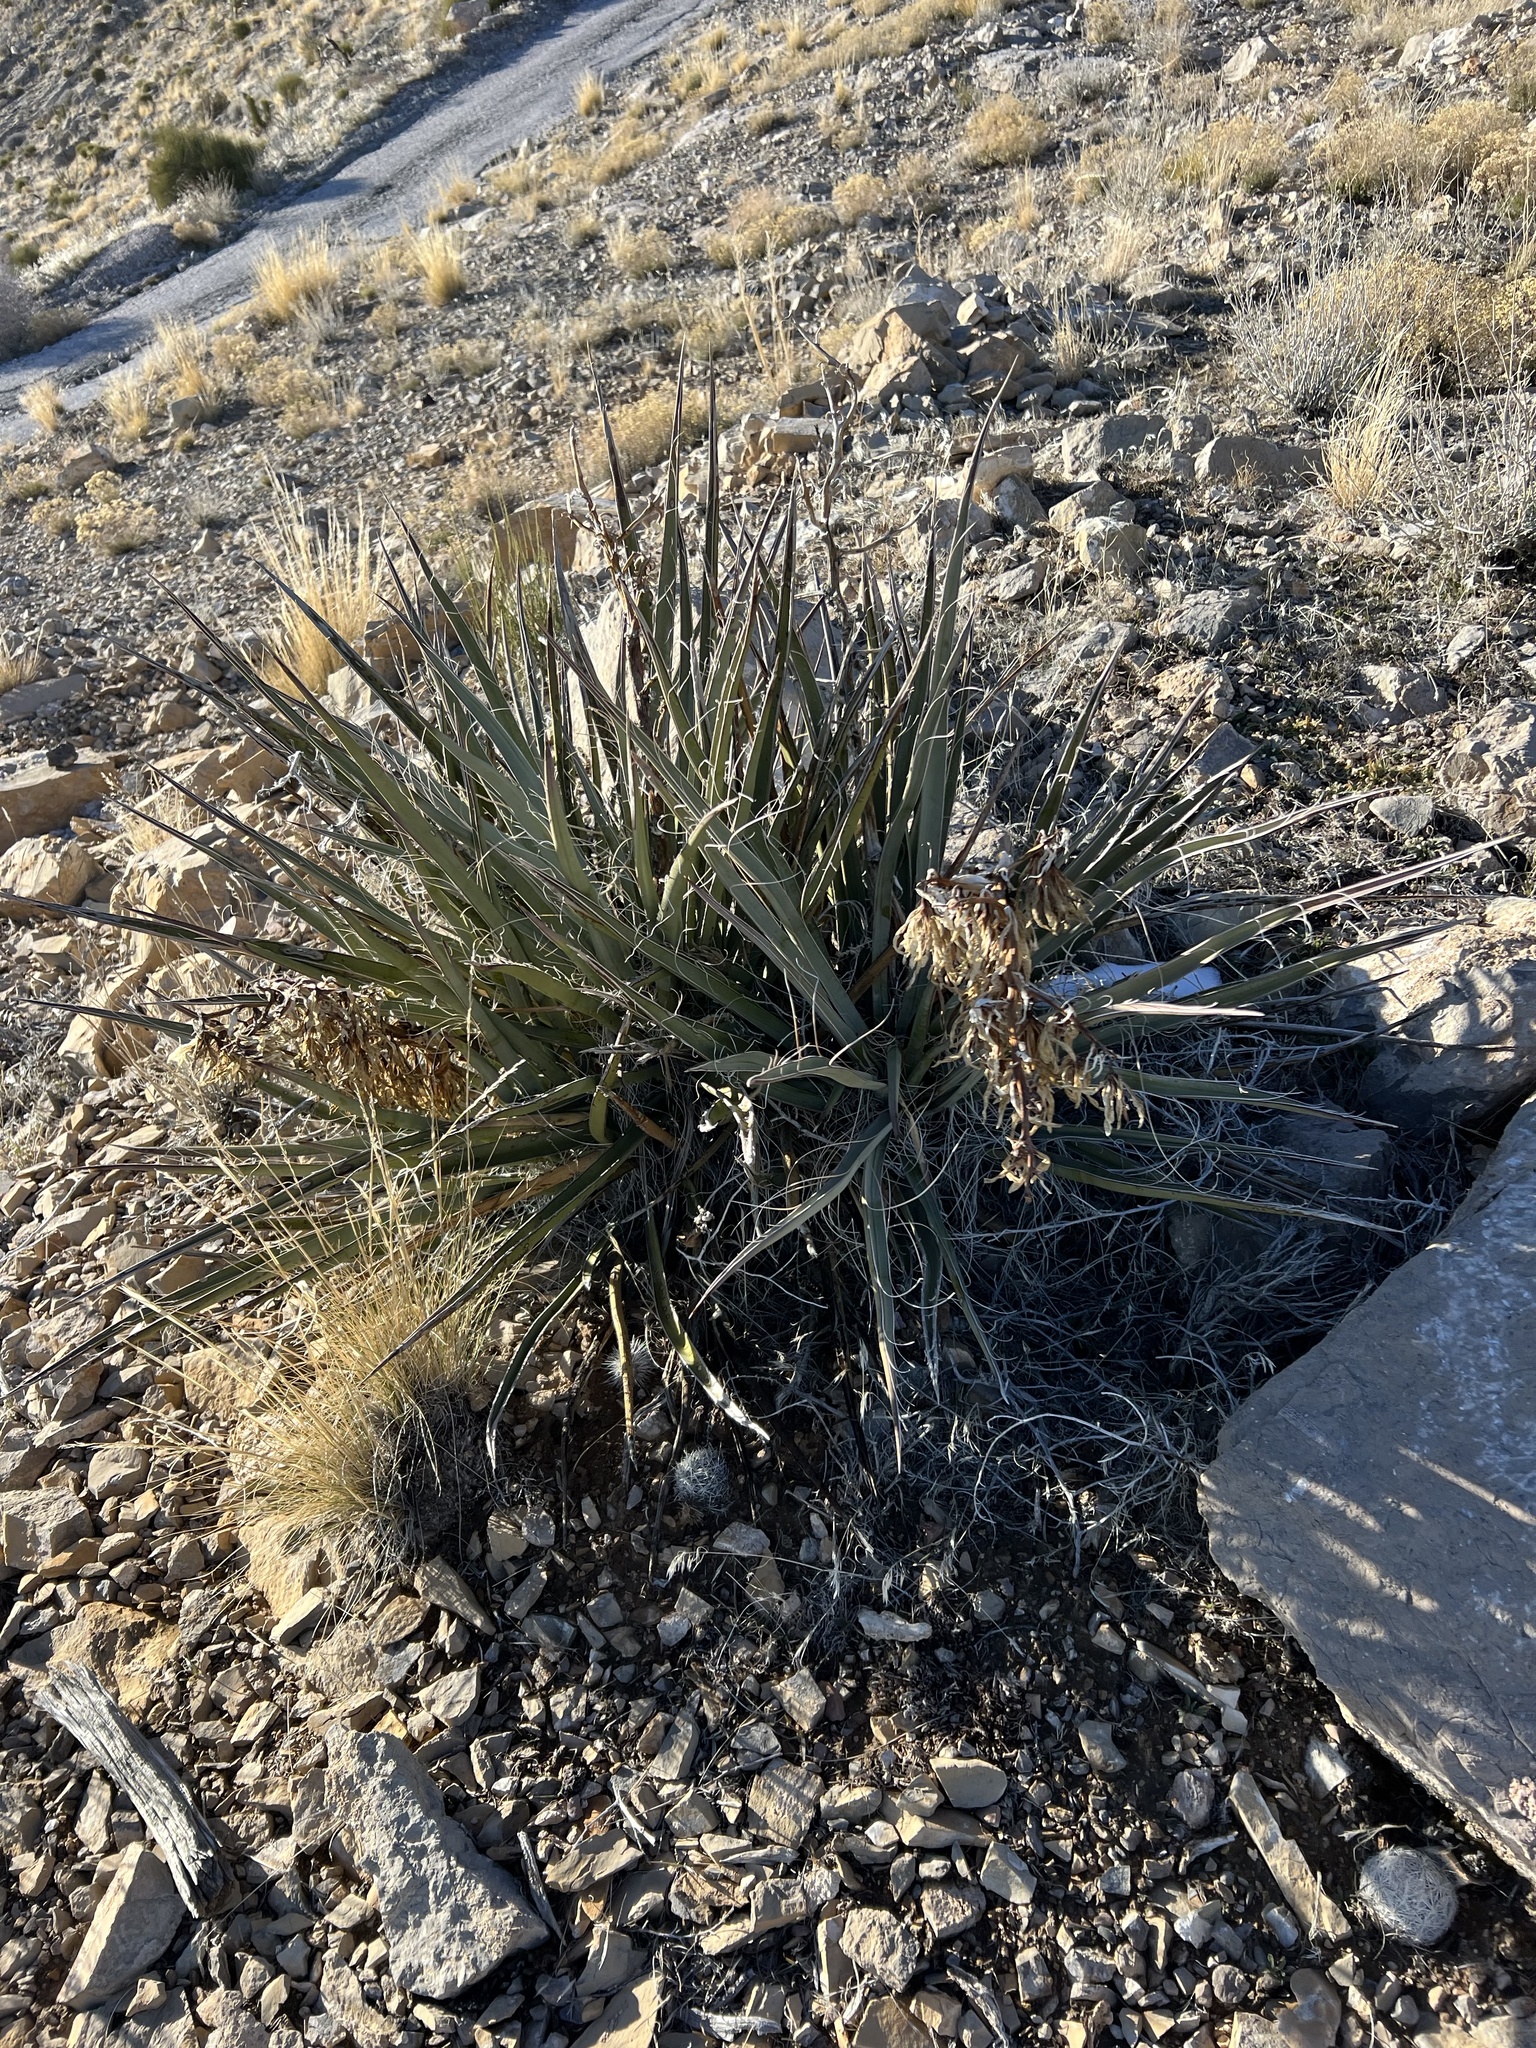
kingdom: Plantae
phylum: Tracheophyta
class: Liliopsida
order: Asparagales
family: Asparagaceae
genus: Yucca
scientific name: Yucca baccata
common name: Banana yucca
